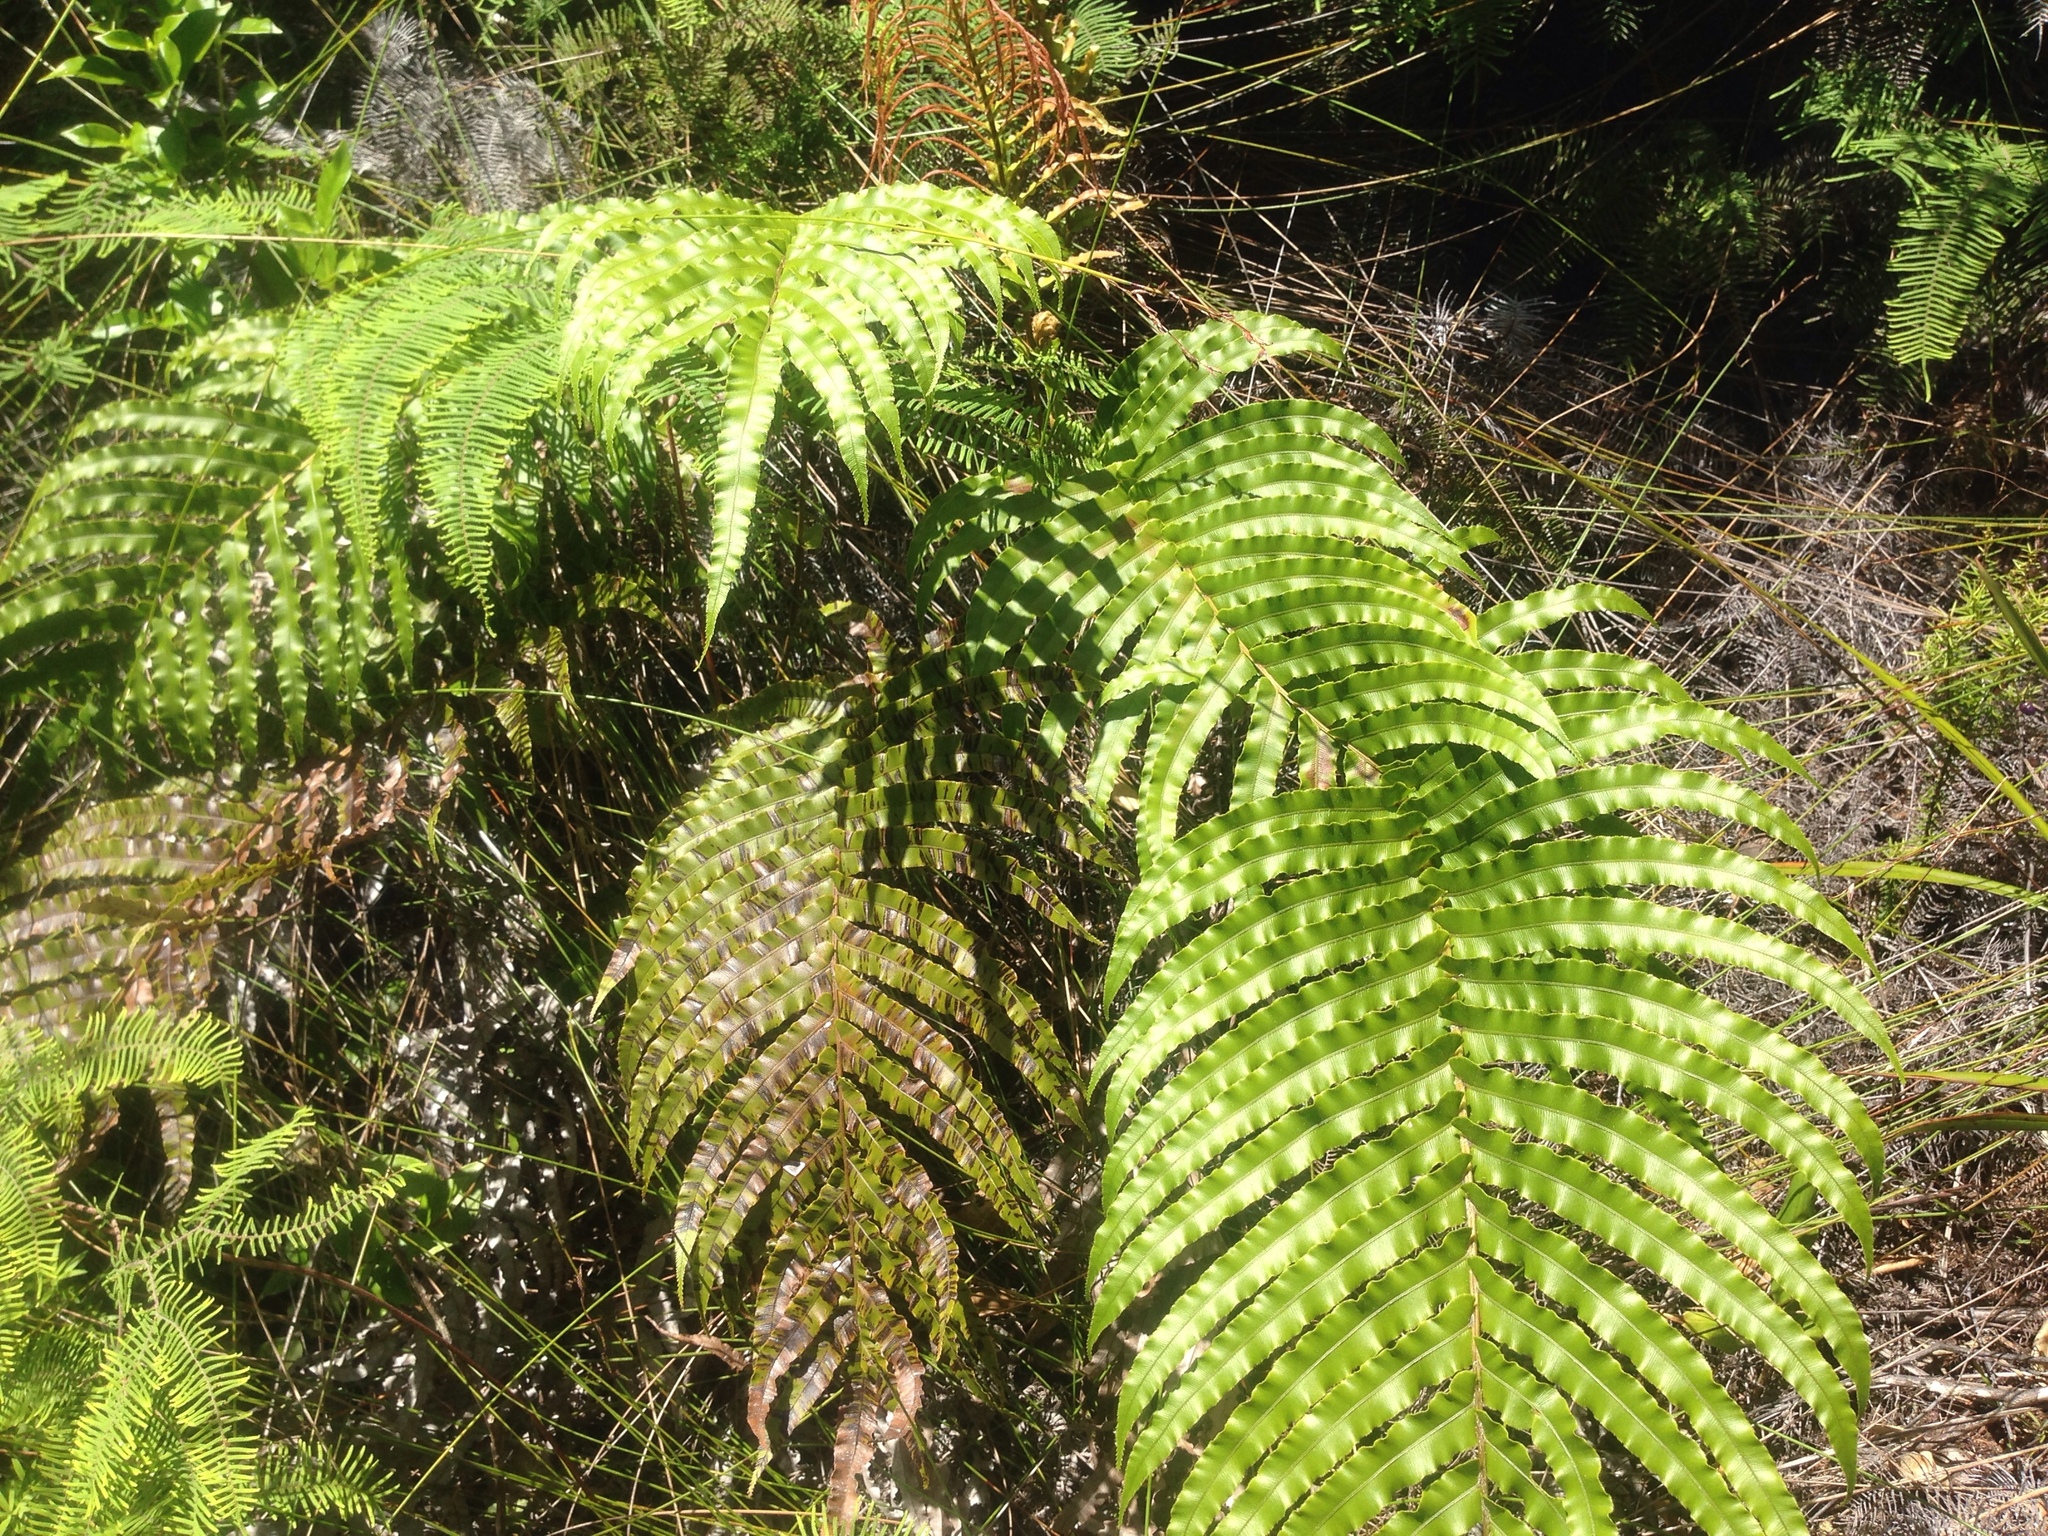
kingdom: Plantae
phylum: Tracheophyta
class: Polypodiopsida
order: Polypodiales
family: Blechnaceae
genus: Parablechnum
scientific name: Parablechnum novae-zelandiae
